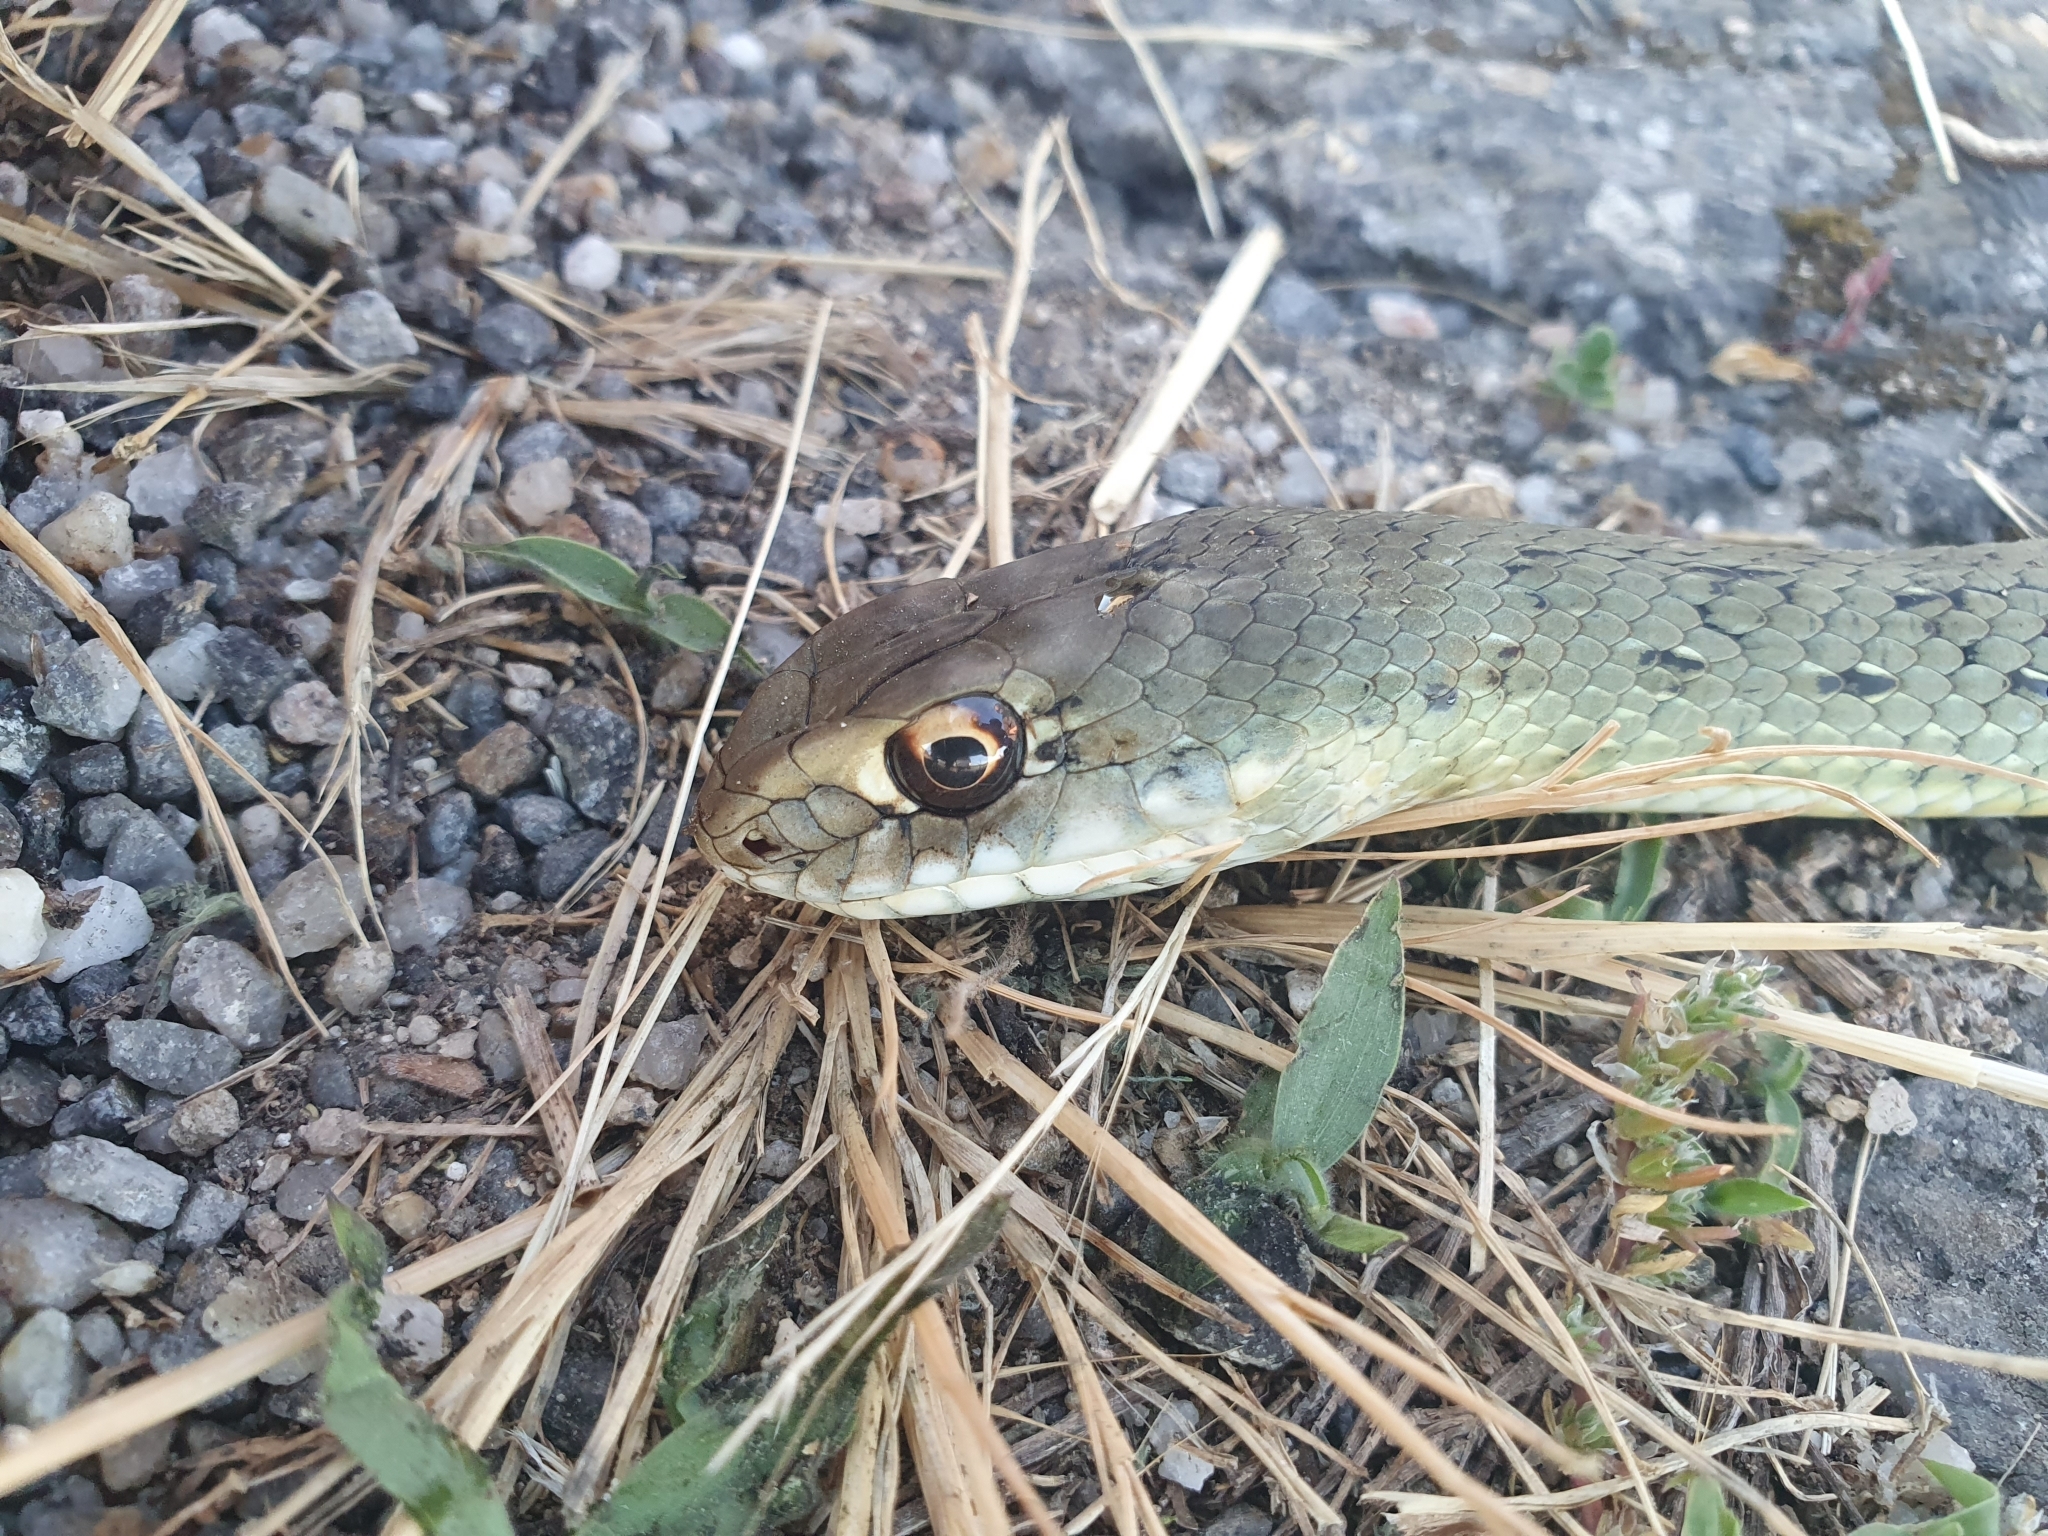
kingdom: Animalia
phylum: Chordata
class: Squamata
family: Psammophiidae
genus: Malpolon
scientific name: Malpolon monspessulanus
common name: Montpellier snake
